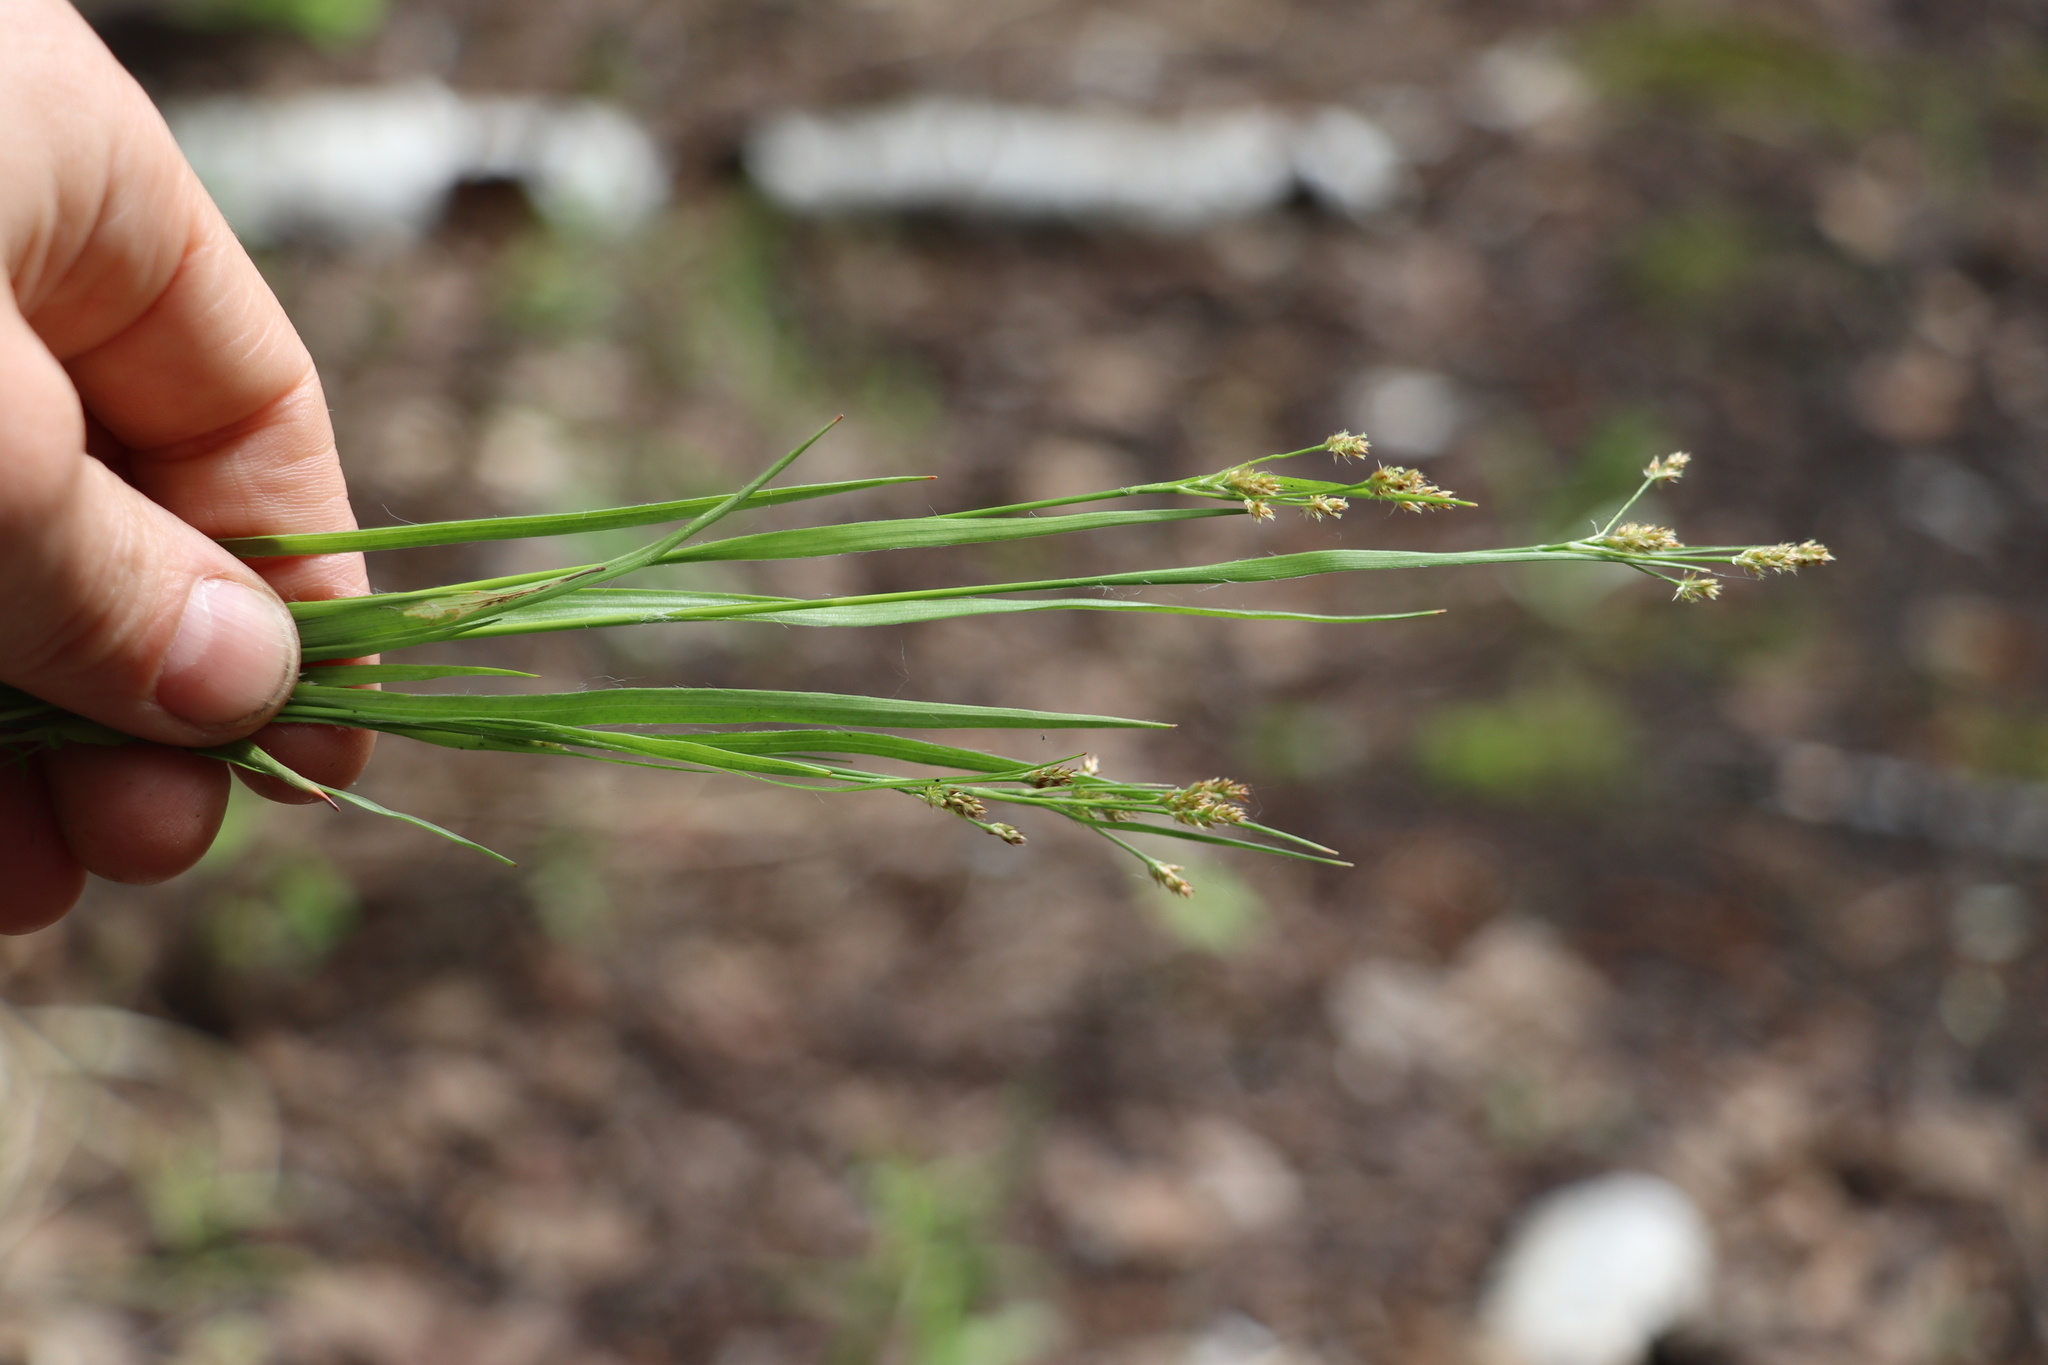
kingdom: Plantae
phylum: Tracheophyta
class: Liliopsida
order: Poales
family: Juncaceae
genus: Luzula
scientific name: Luzula pallescens
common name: Fen wood-rush
